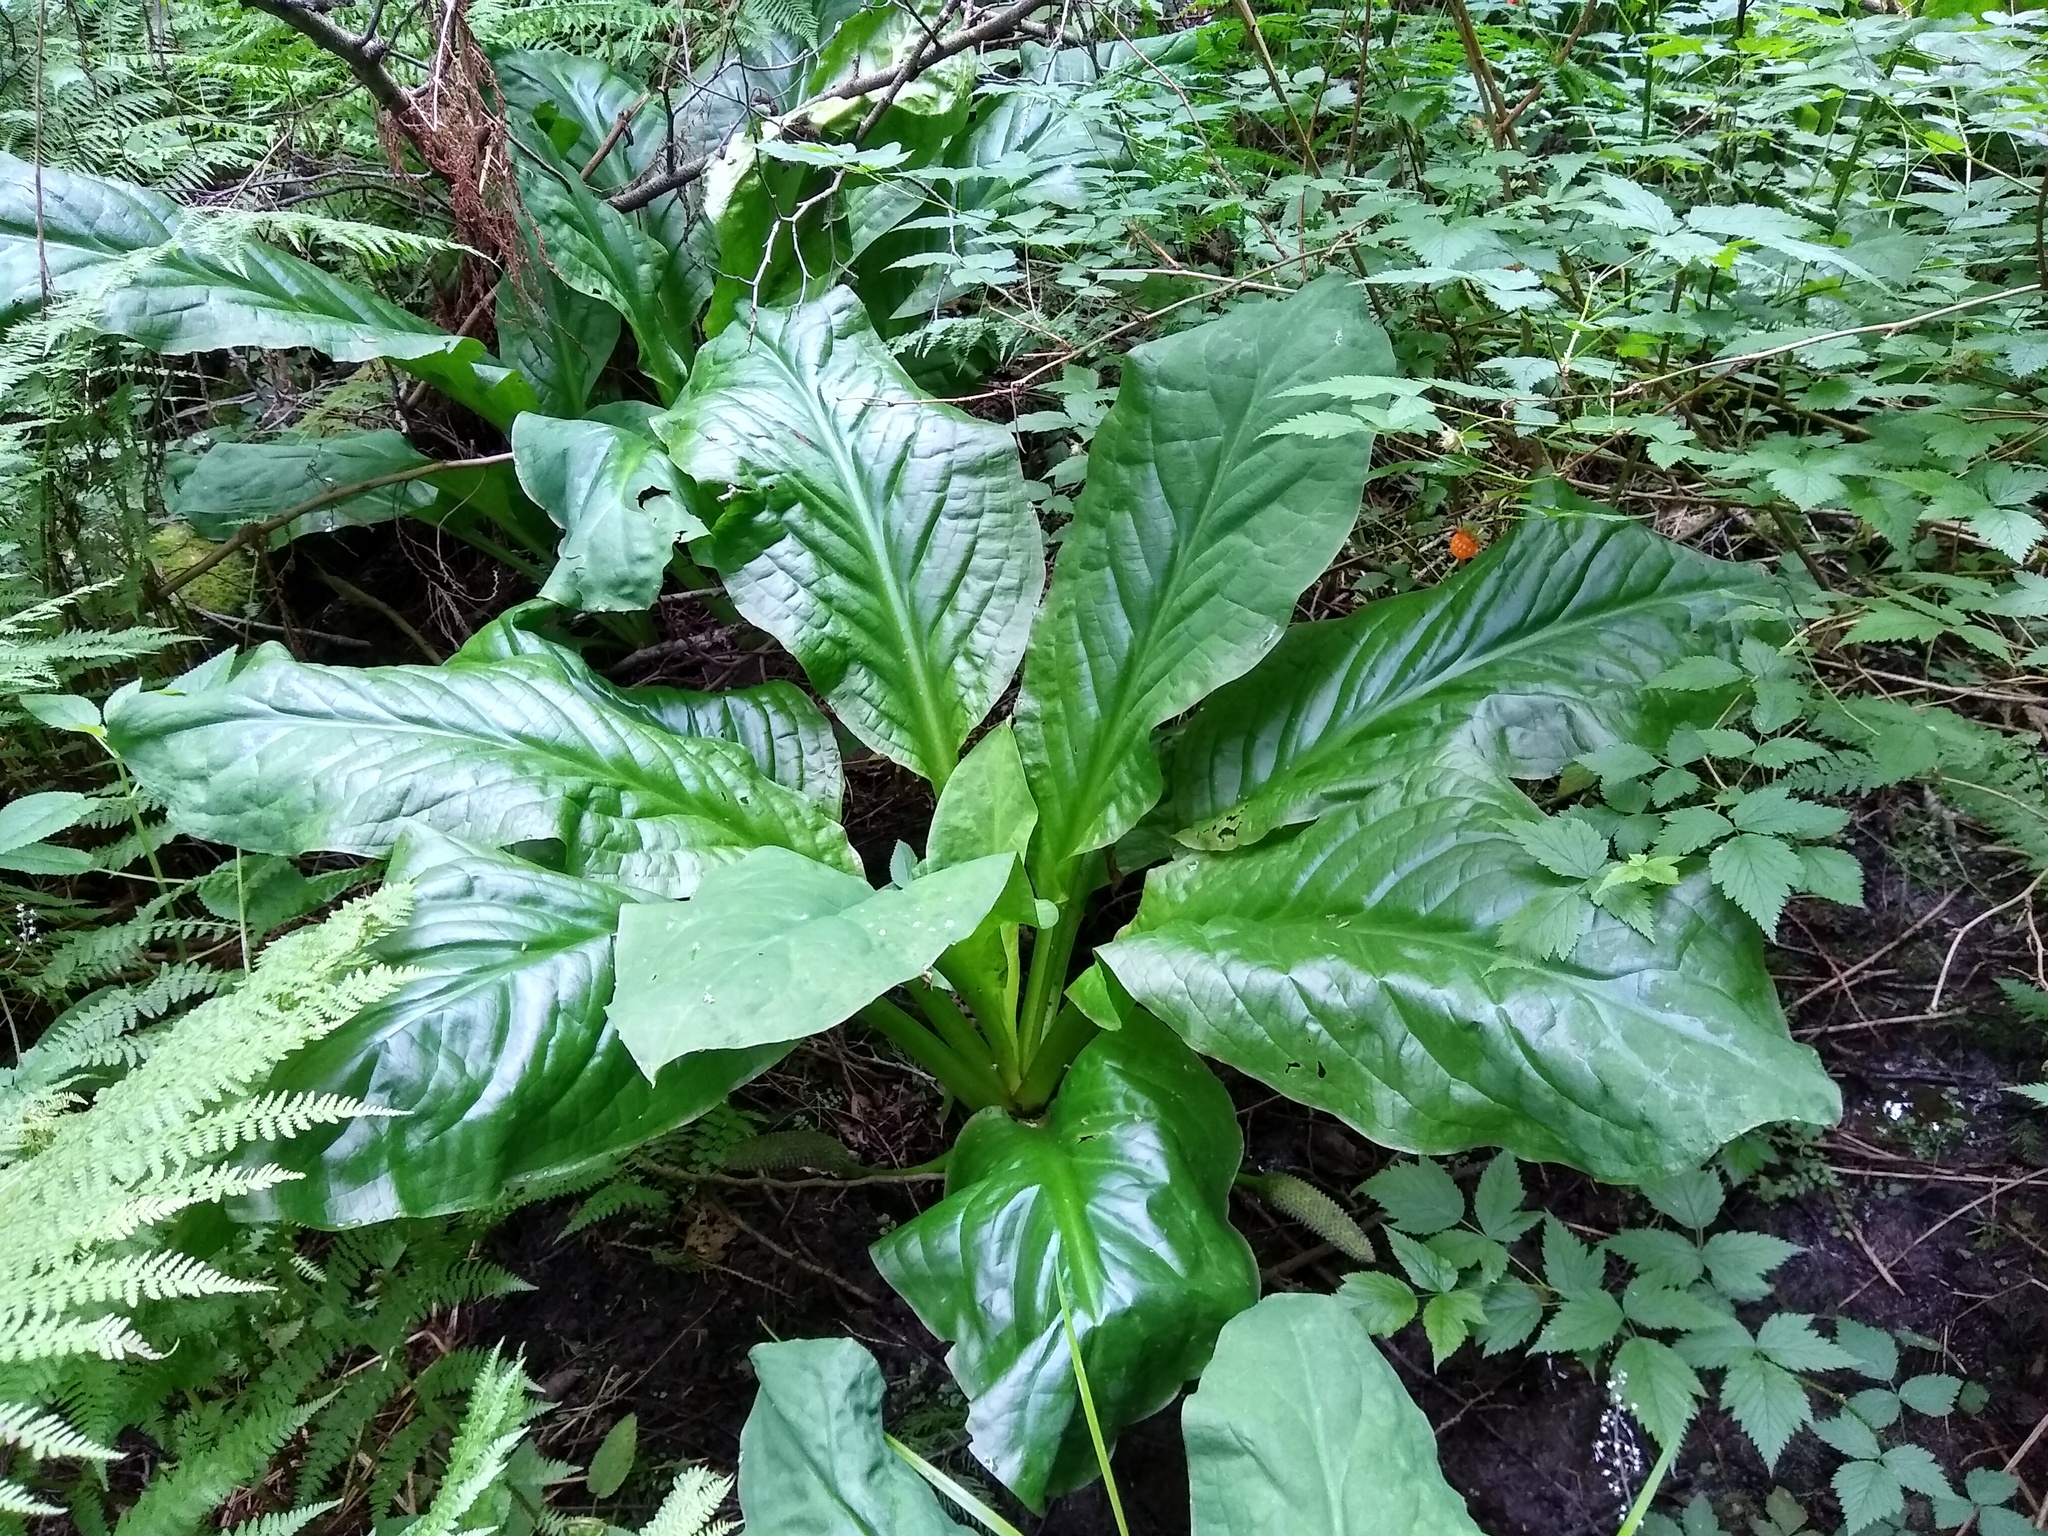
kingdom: Plantae
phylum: Tracheophyta
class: Liliopsida
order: Alismatales
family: Araceae
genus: Lysichiton
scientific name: Lysichiton americanus
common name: American skunk cabbage
